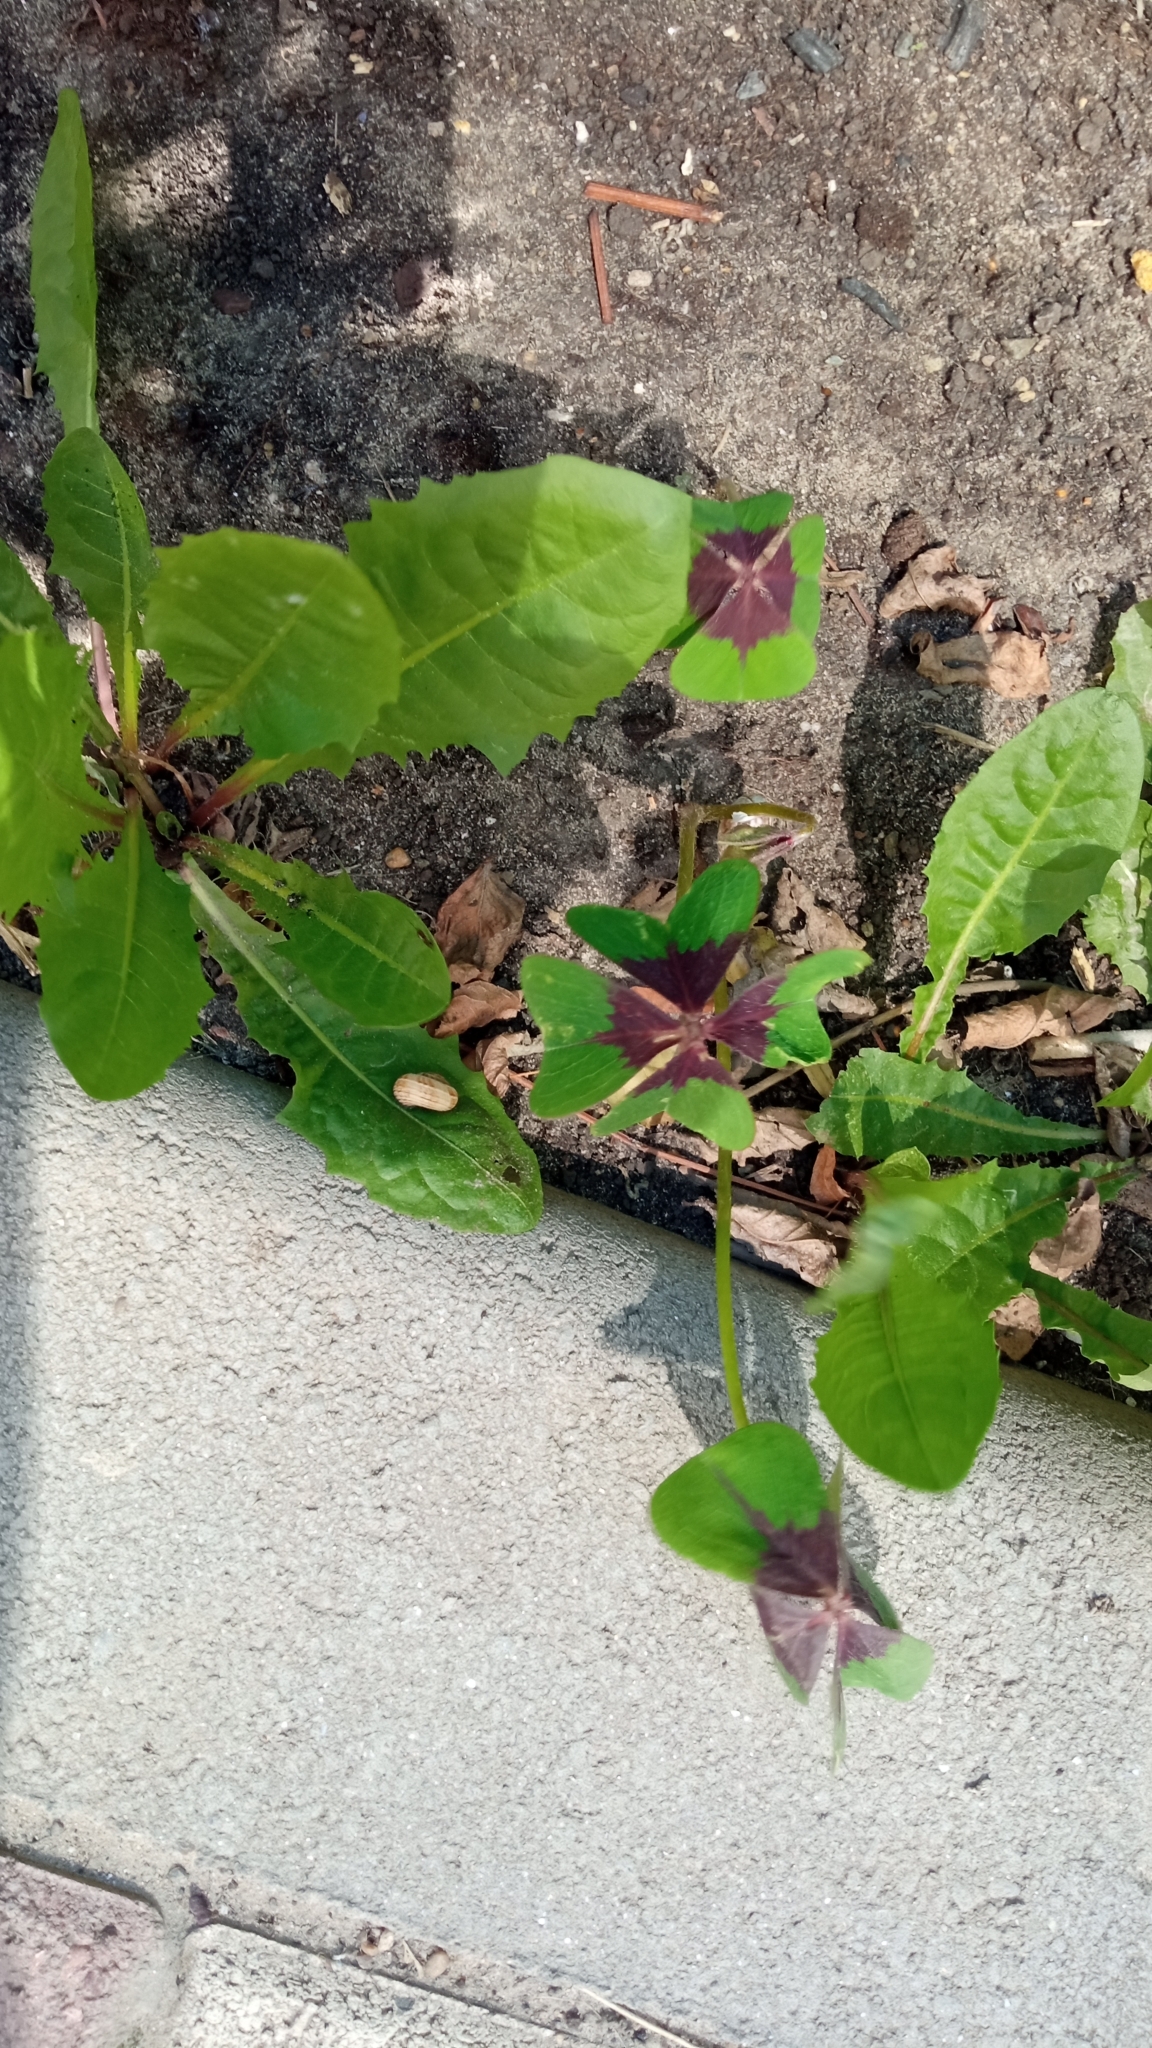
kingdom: Plantae
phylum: Tracheophyta
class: Magnoliopsida
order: Oxalidales
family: Oxalidaceae
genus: Oxalis
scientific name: Oxalis tetraphylla
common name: Four-leaved pink-sorrel
